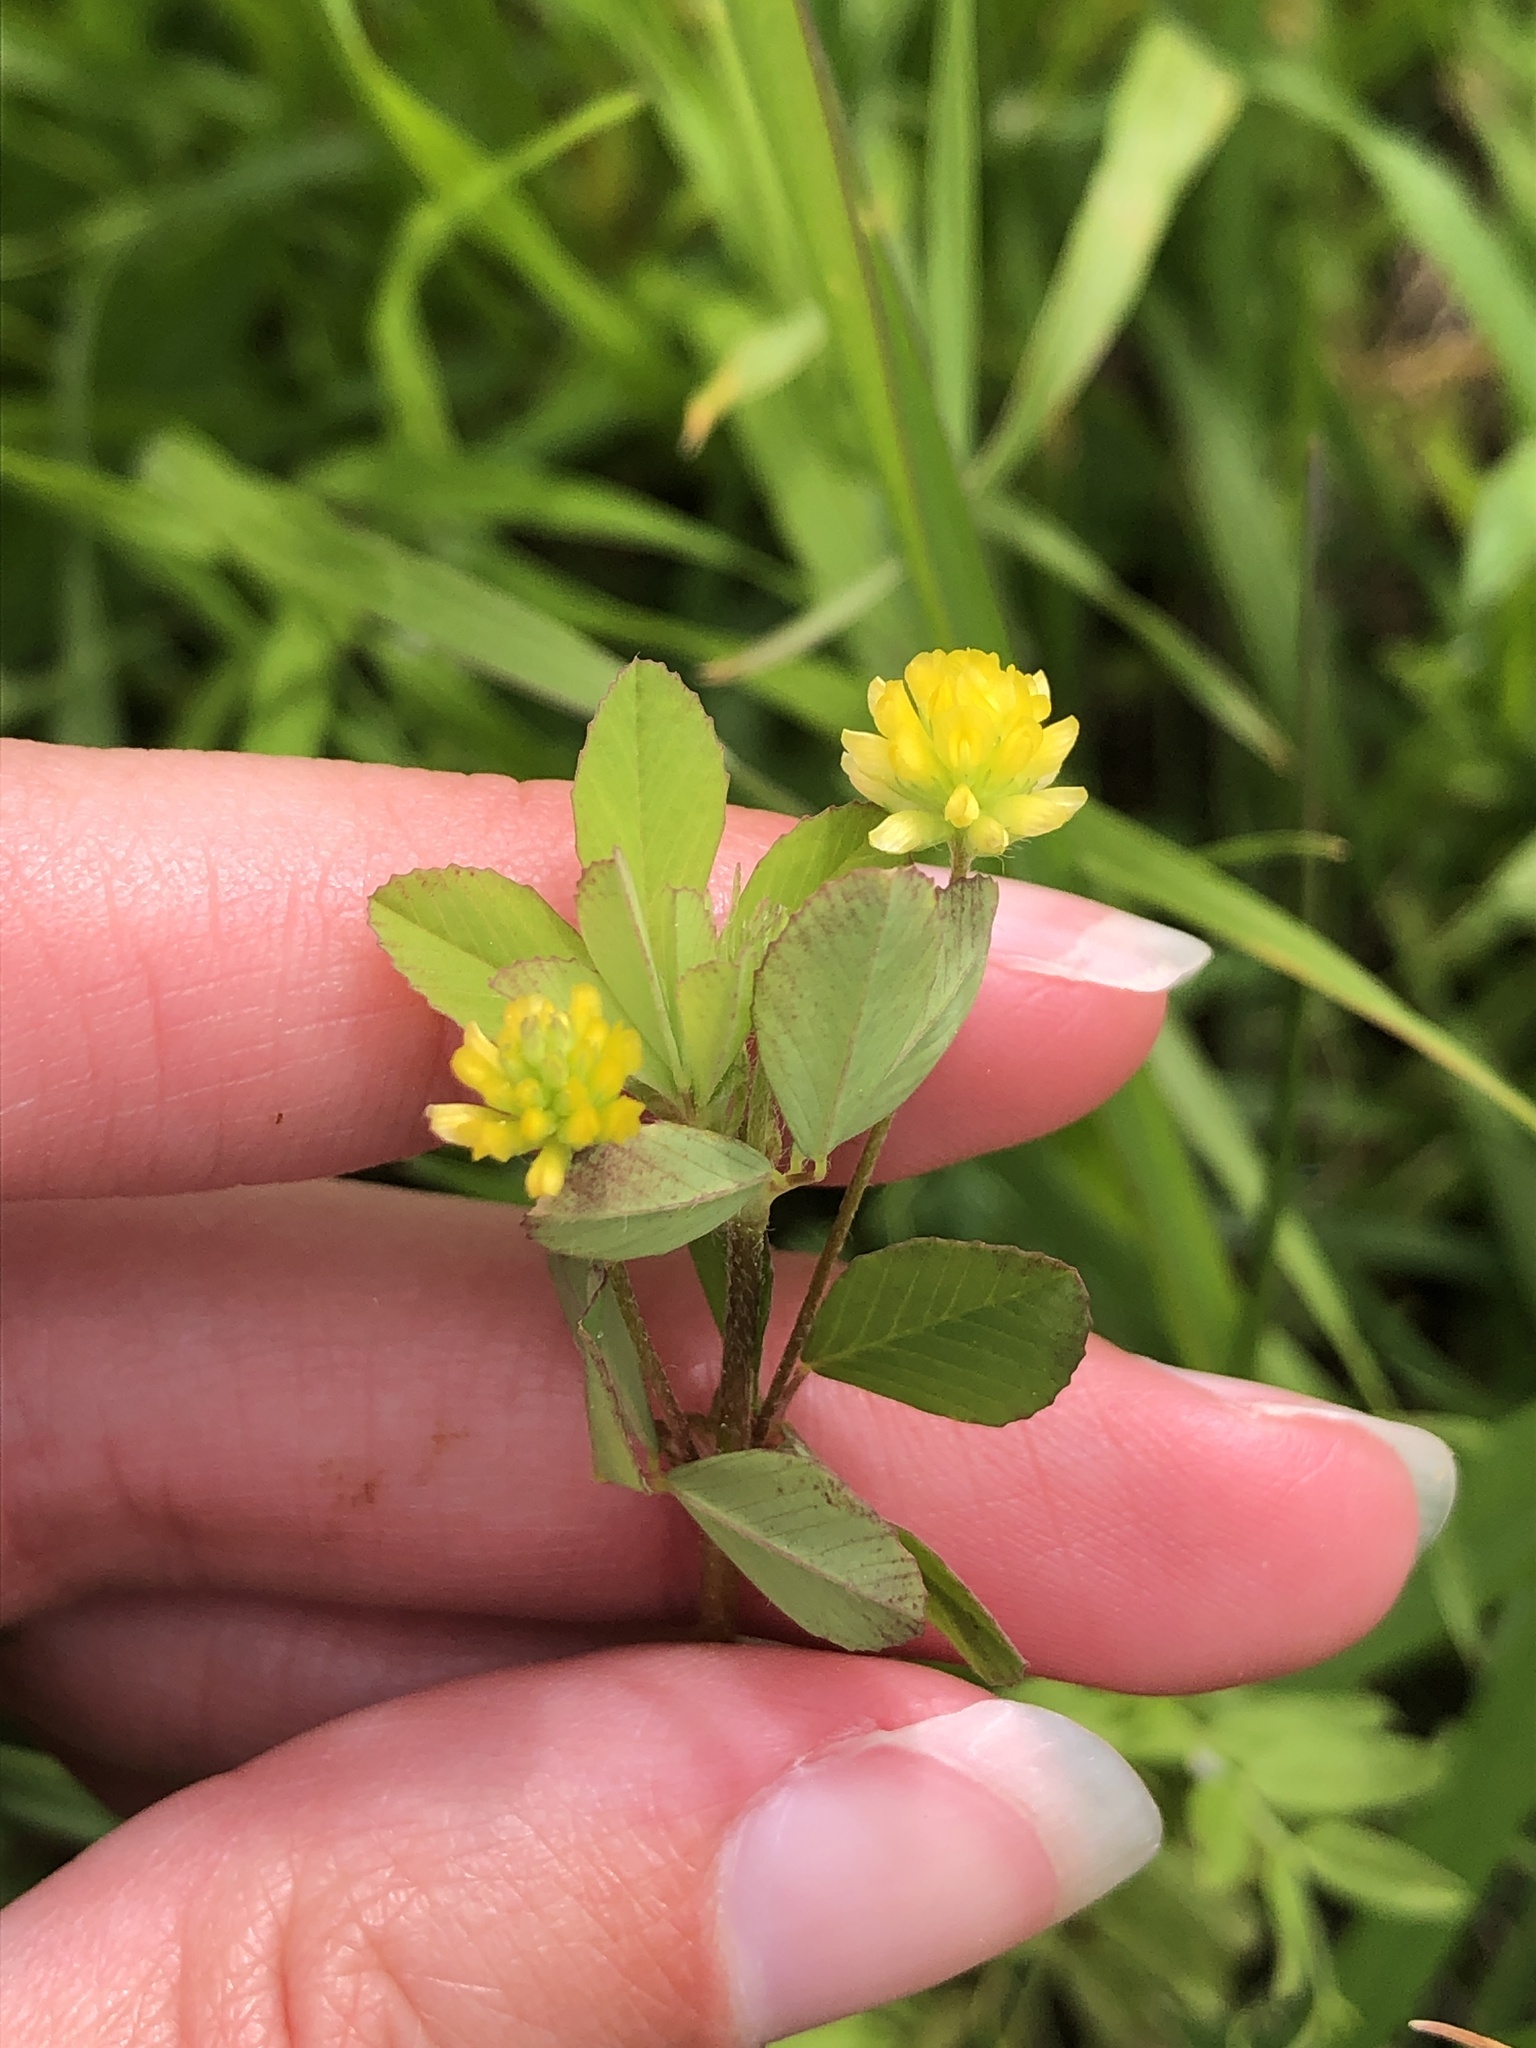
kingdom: Plantae
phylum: Tracheophyta
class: Magnoliopsida
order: Fabales
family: Fabaceae
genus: Trifolium
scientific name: Trifolium dubium
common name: Suckling clover
